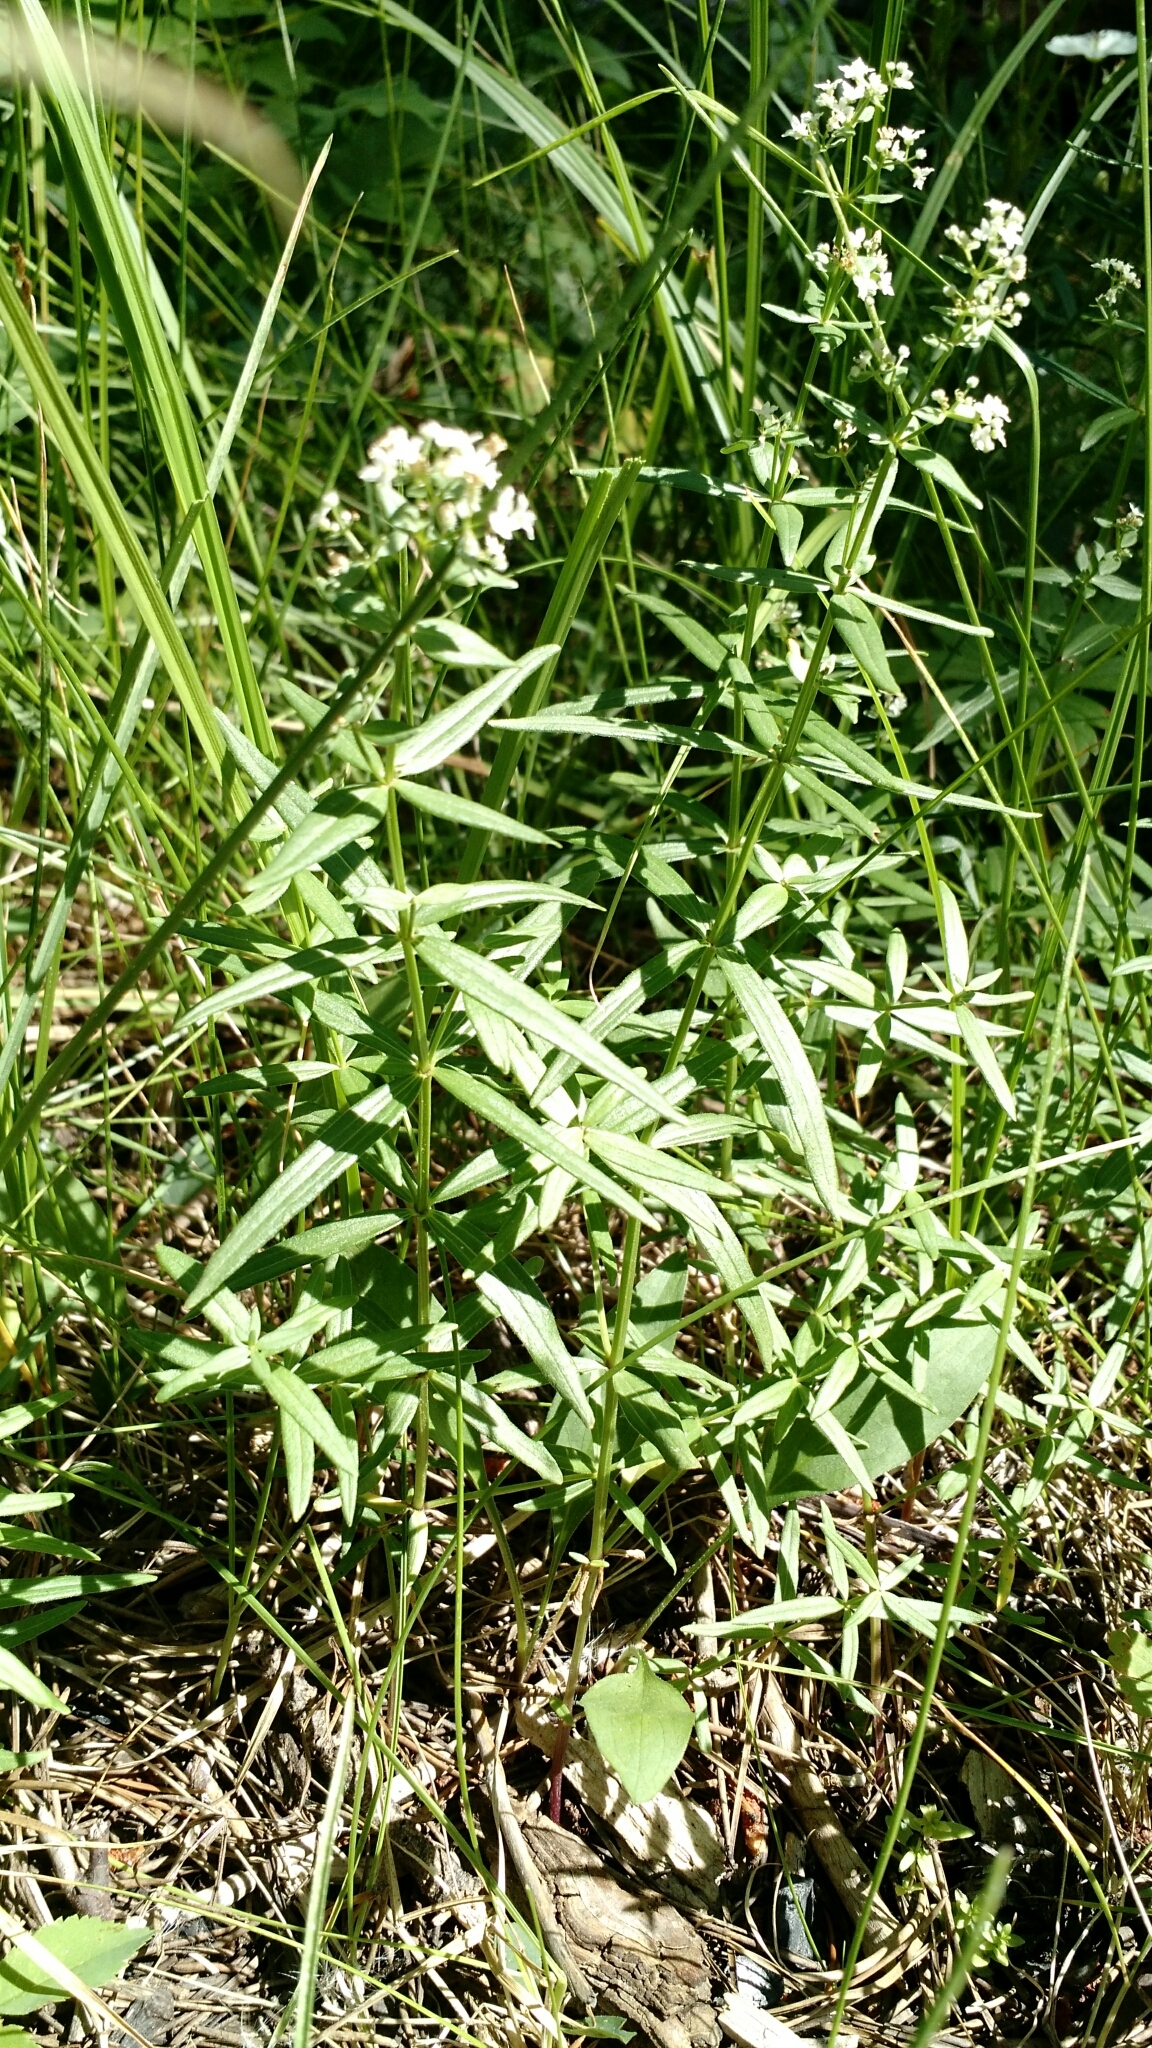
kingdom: Plantae
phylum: Tracheophyta
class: Magnoliopsida
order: Gentianales
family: Rubiaceae
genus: Galium
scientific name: Galium boreale
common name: Northern bedstraw
